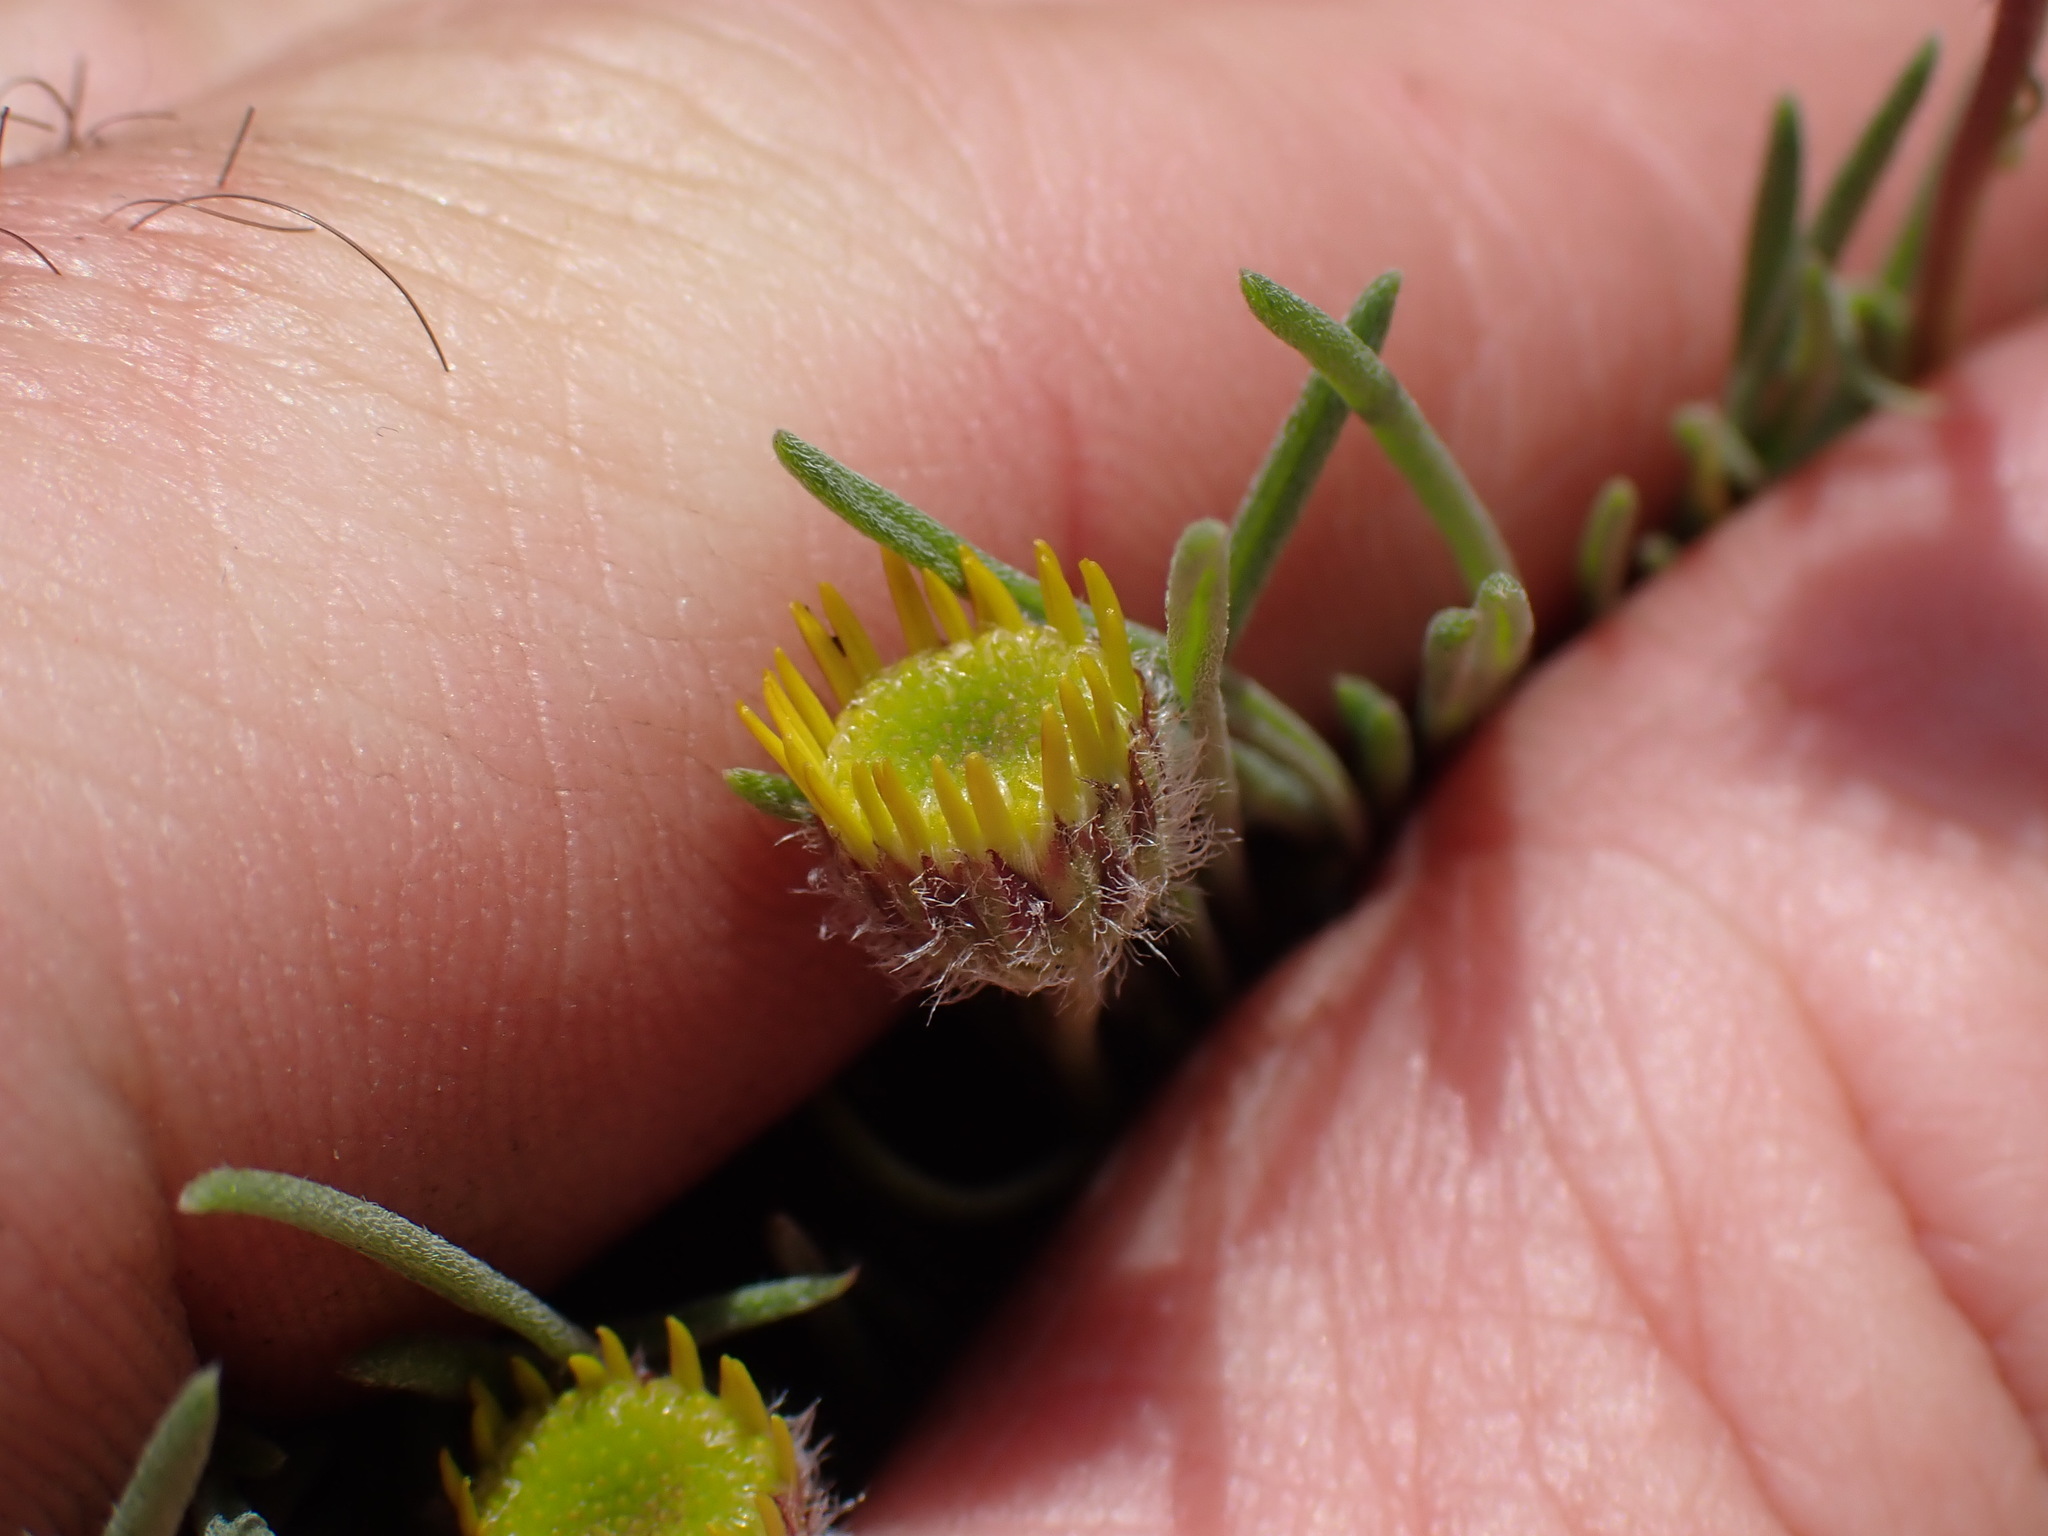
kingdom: Plantae
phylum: Tracheophyta
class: Magnoliopsida
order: Asterales
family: Asteraceae
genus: Erigeron
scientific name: Erigeron linearis
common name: Desert yellow fleabane
